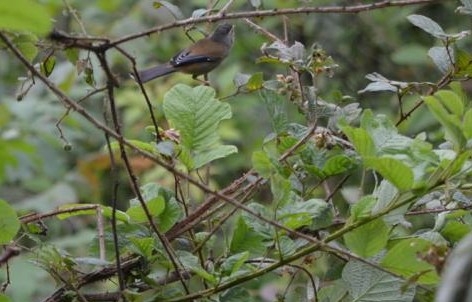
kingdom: Animalia
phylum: Chordata
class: Aves
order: Passeriformes
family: Leiothrichidae
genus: Minla
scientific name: Minla cyanouroptera
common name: Blue-winged minla
